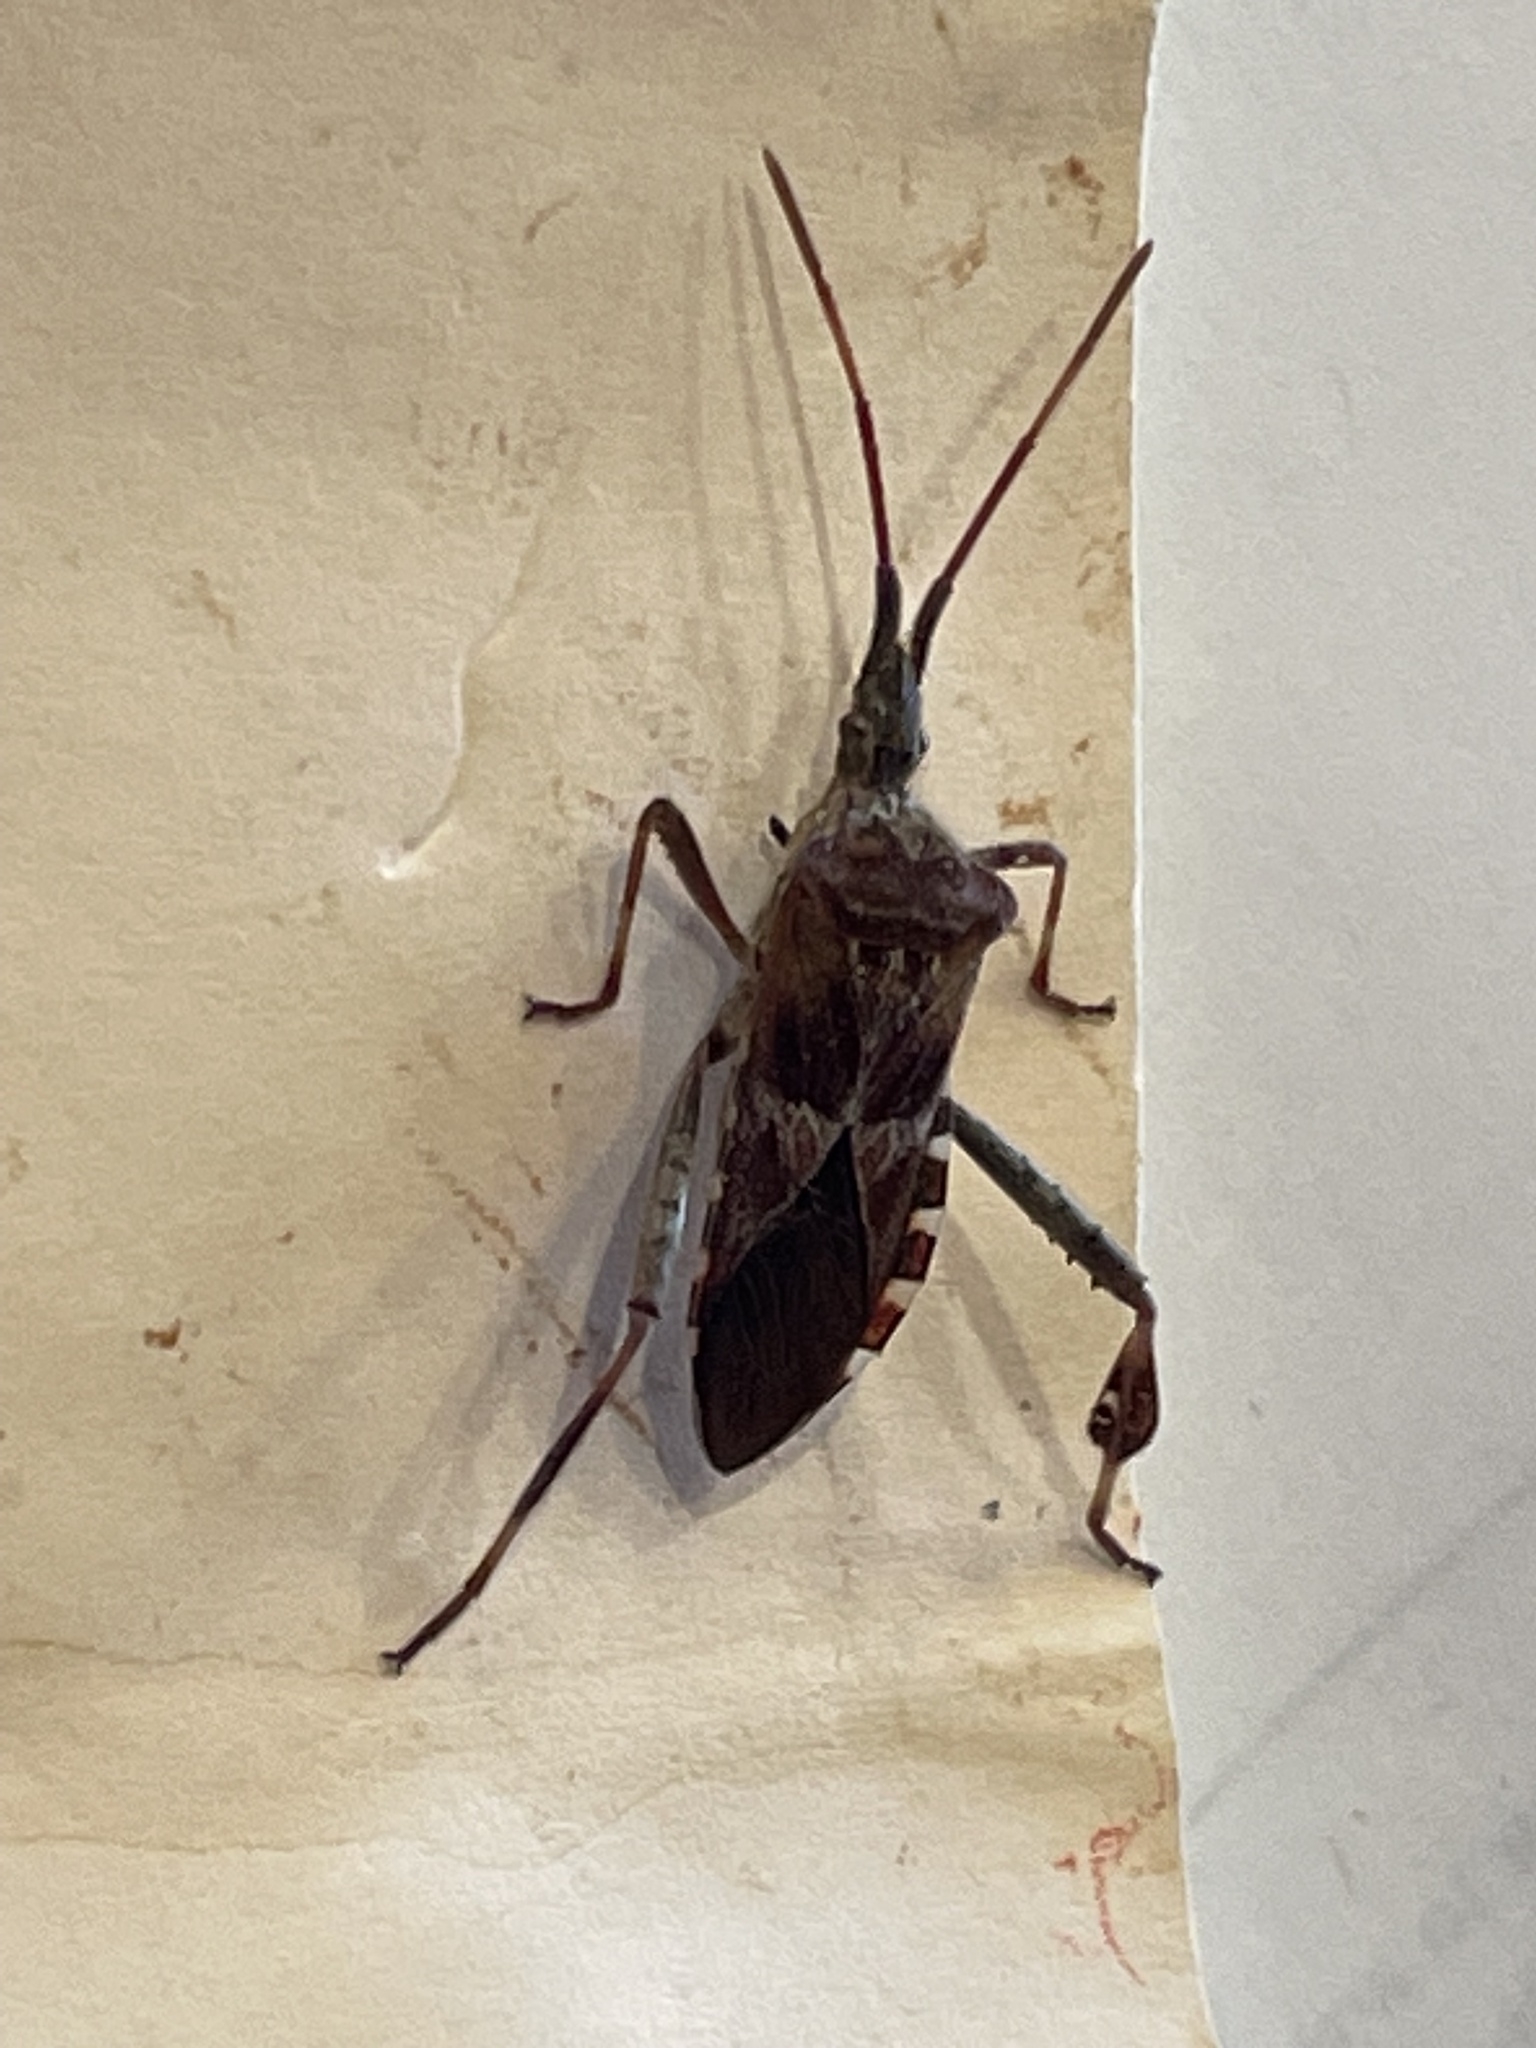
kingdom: Animalia
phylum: Arthropoda
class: Insecta
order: Hemiptera
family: Coreidae
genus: Leptoglossus
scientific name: Leptoglossus occidentalis
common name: Western conifer-seed bug
